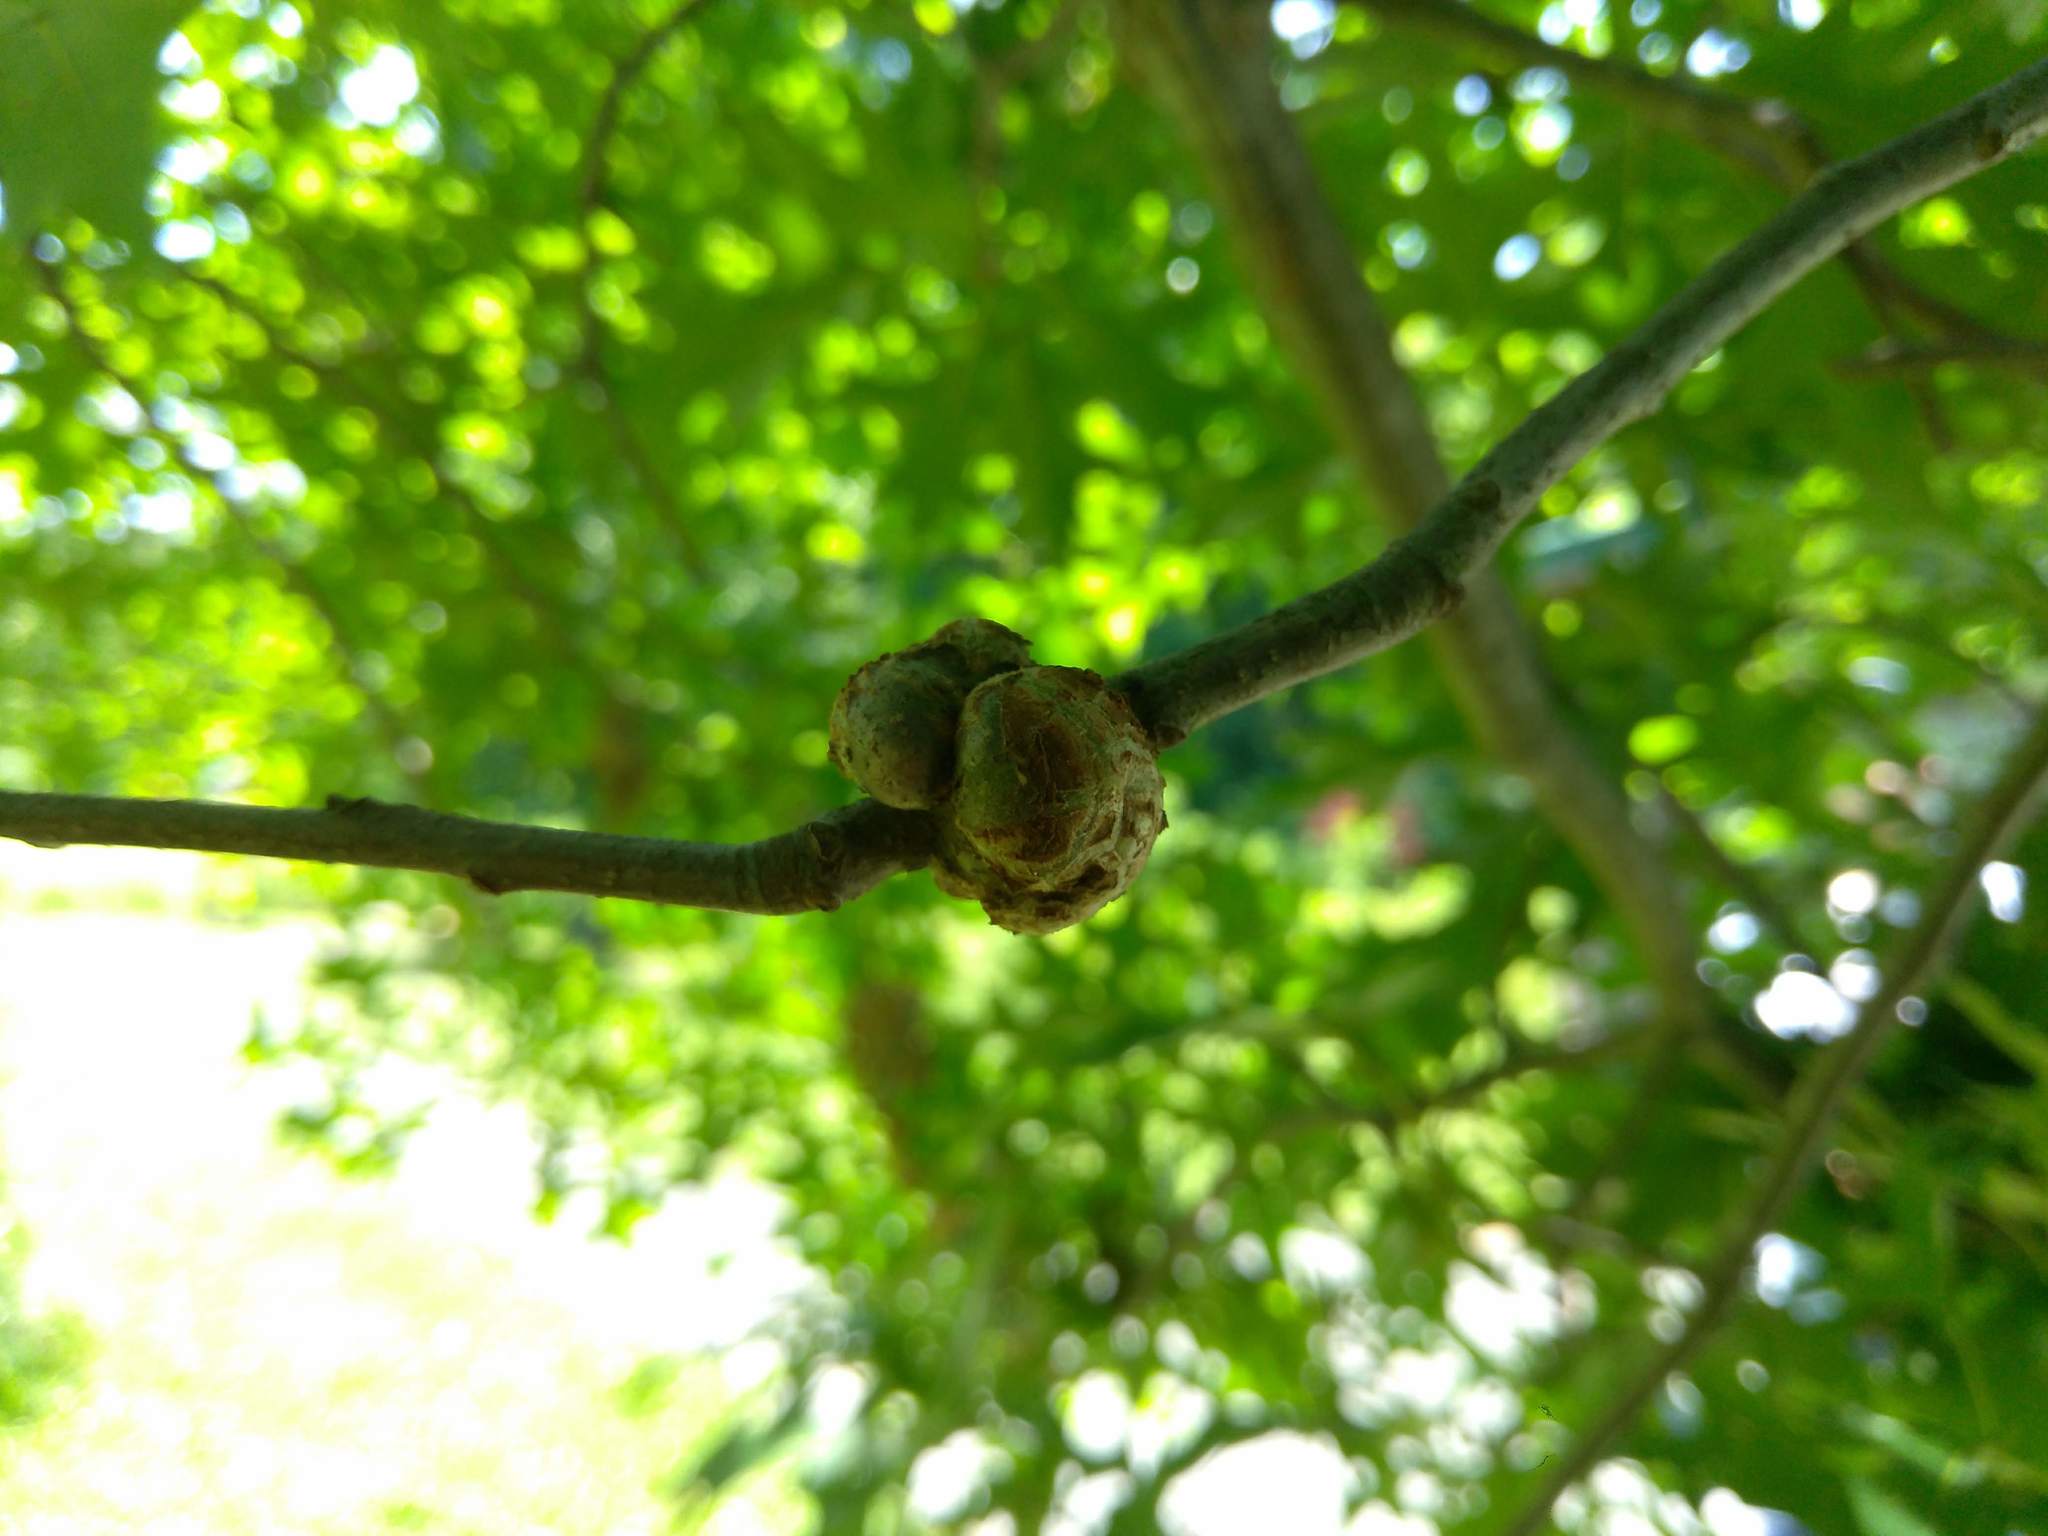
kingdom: Animalia
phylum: Arthropoda
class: Insecta
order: Hymenoptera
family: Cynipidae
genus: Callirhytis
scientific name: Callirhytis
